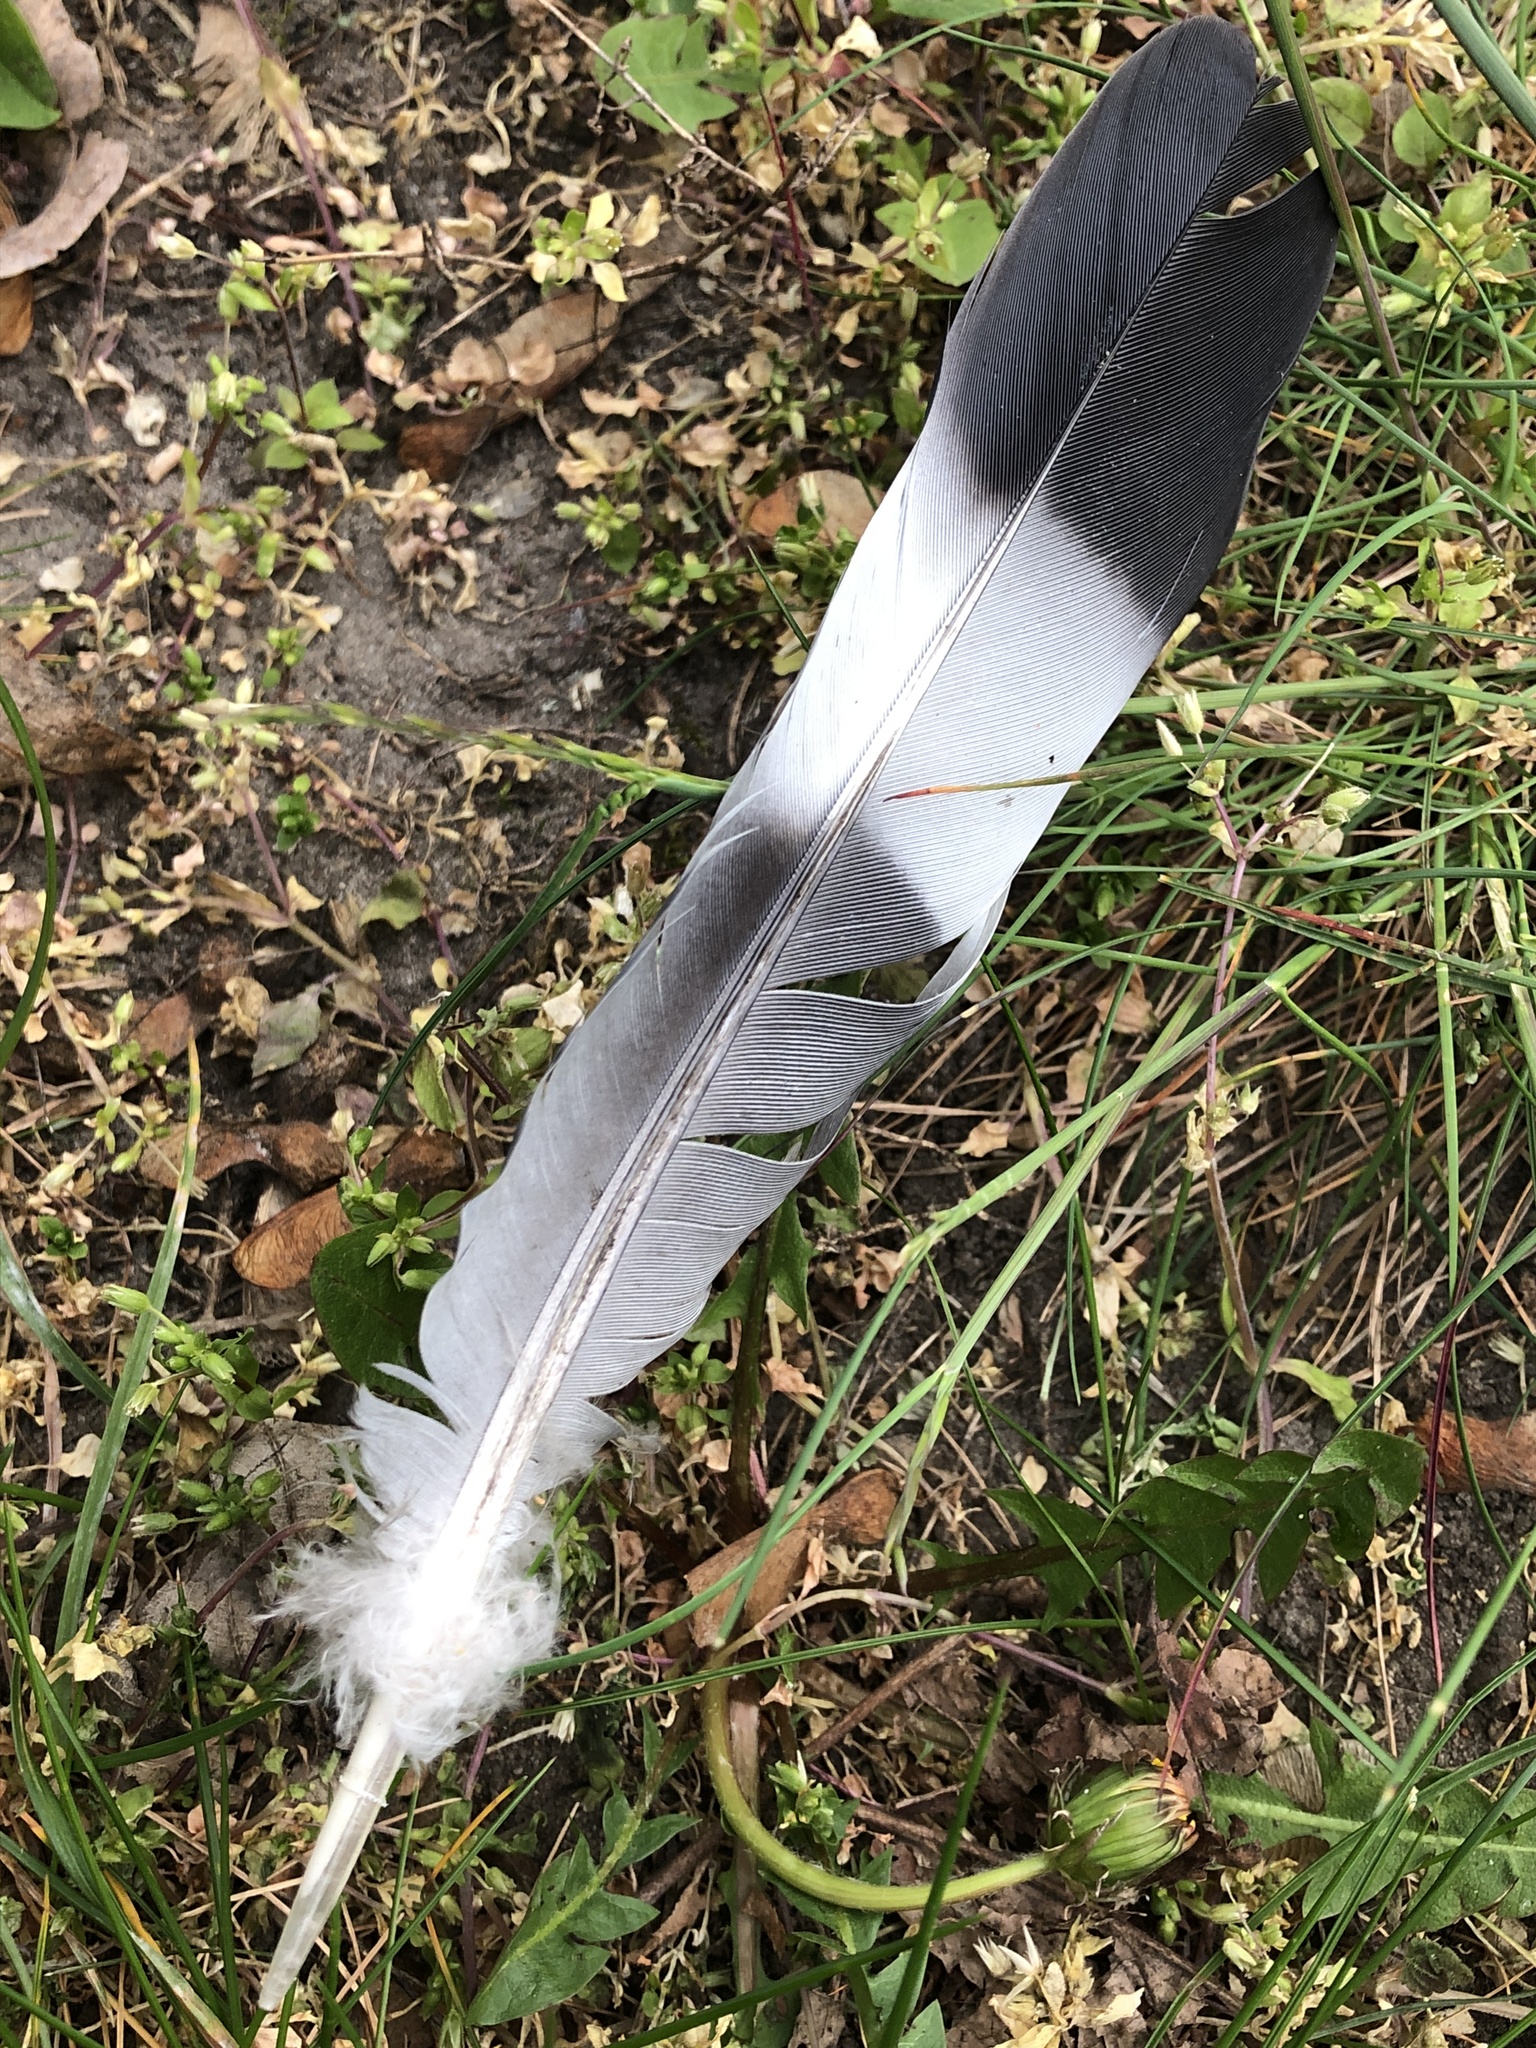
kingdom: Animalia
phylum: Chordata
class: Aves
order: Columbiformes
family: Columbidae
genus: Columba
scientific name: Columba palumbus
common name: Common wood pigeon
